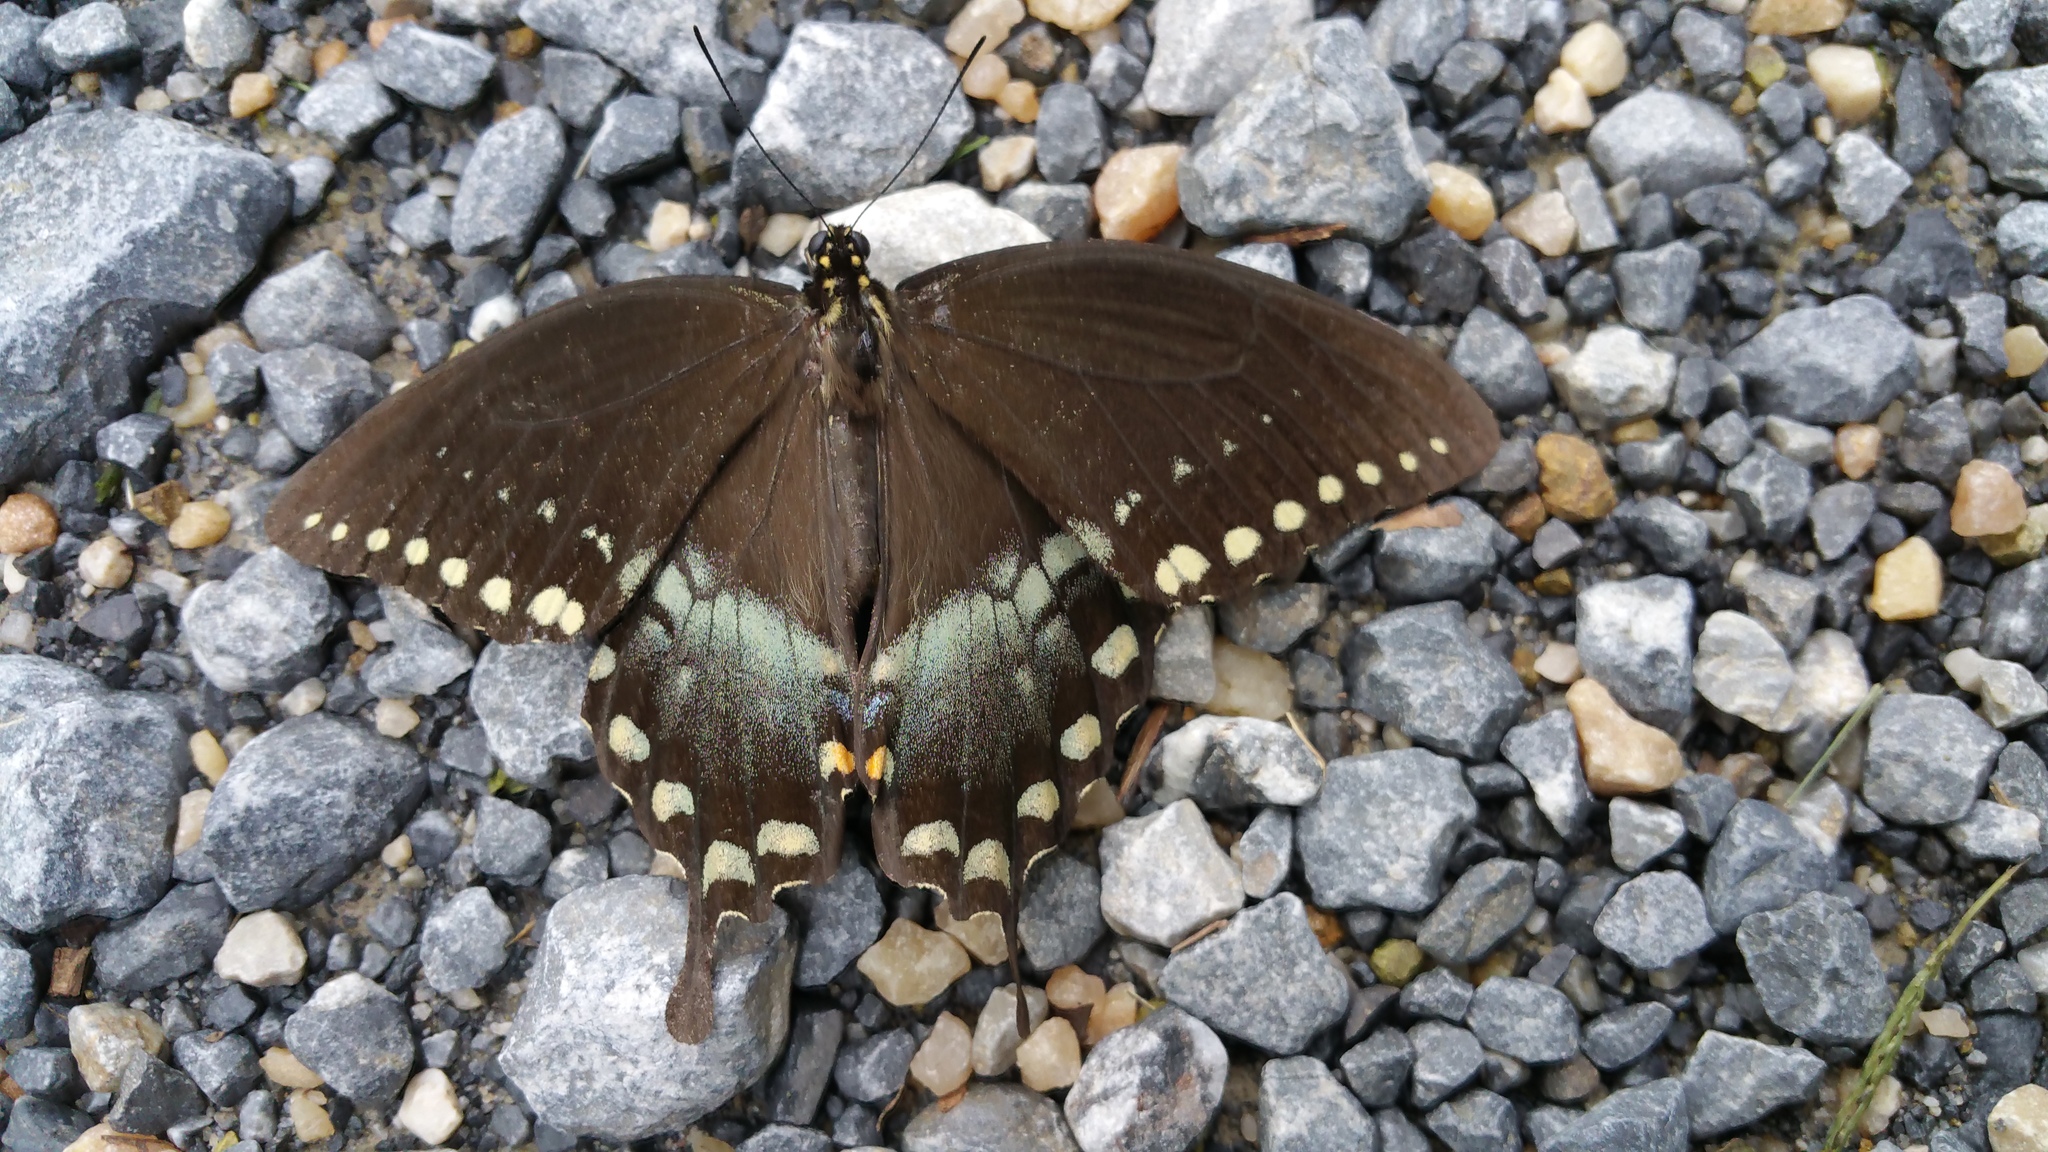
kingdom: Animalia
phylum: Arthropoda
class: Insecta
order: Lepidoptera
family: Papilionidae
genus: Papilio
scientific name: Papilio troilus
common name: Spicebush swallowtail
